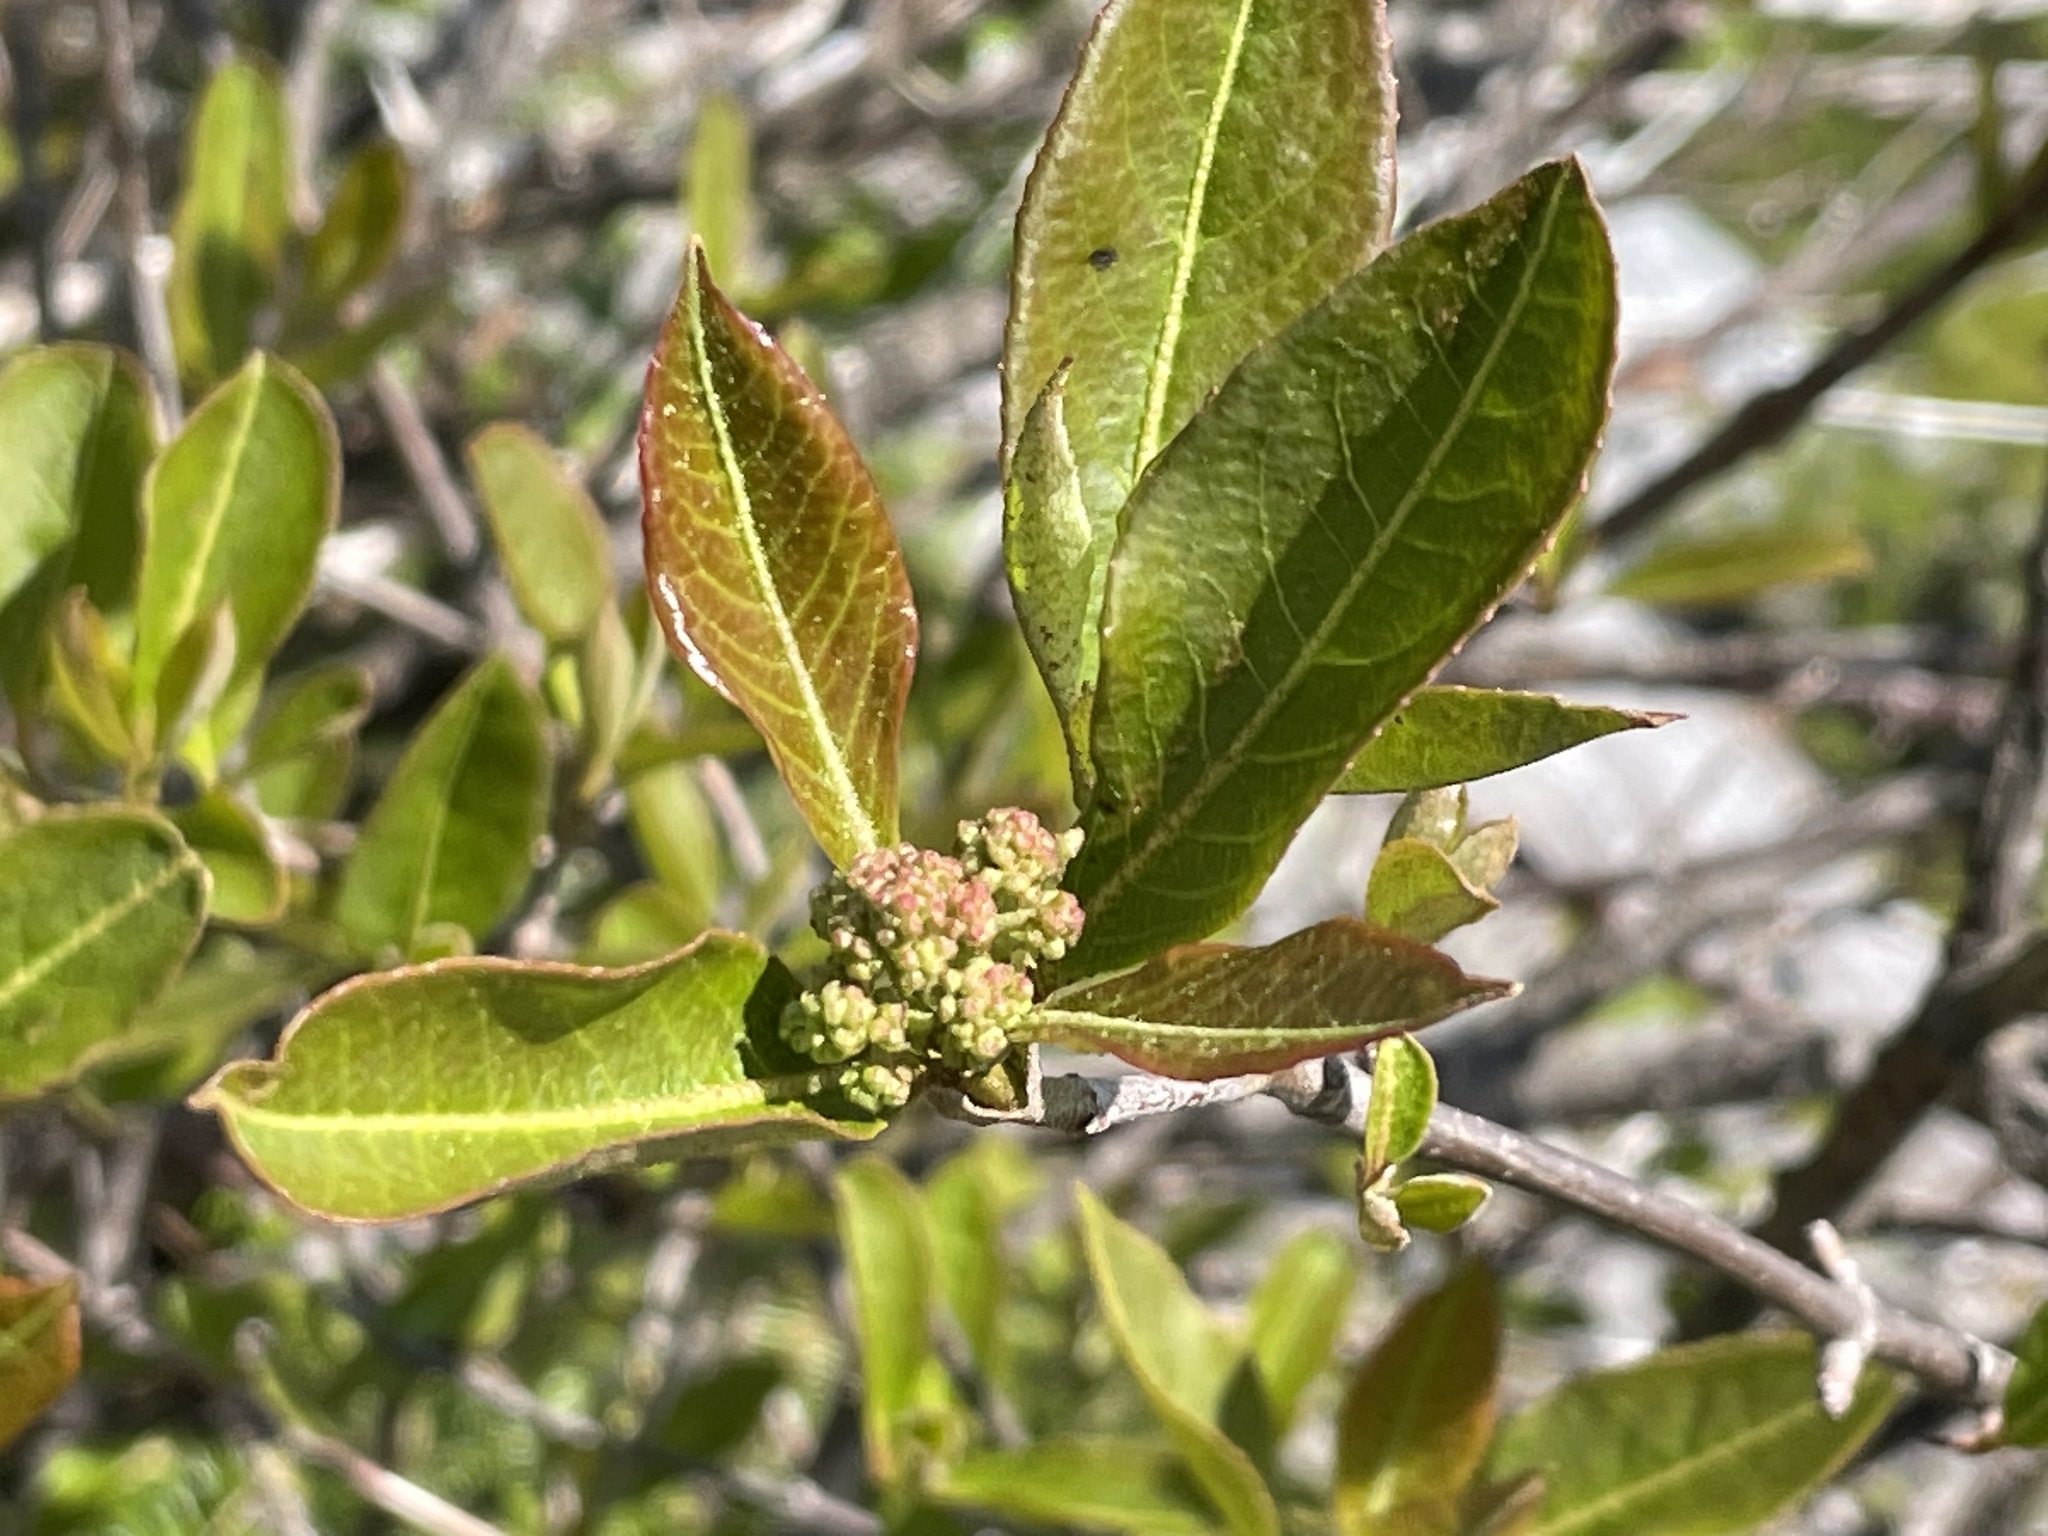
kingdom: Plantae
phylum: Tracheophyta
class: Magnoliopsida
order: Dipsacales
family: Viburnaceae
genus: Viburnum
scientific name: Viburnum cassinoides
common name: Swamp haw
